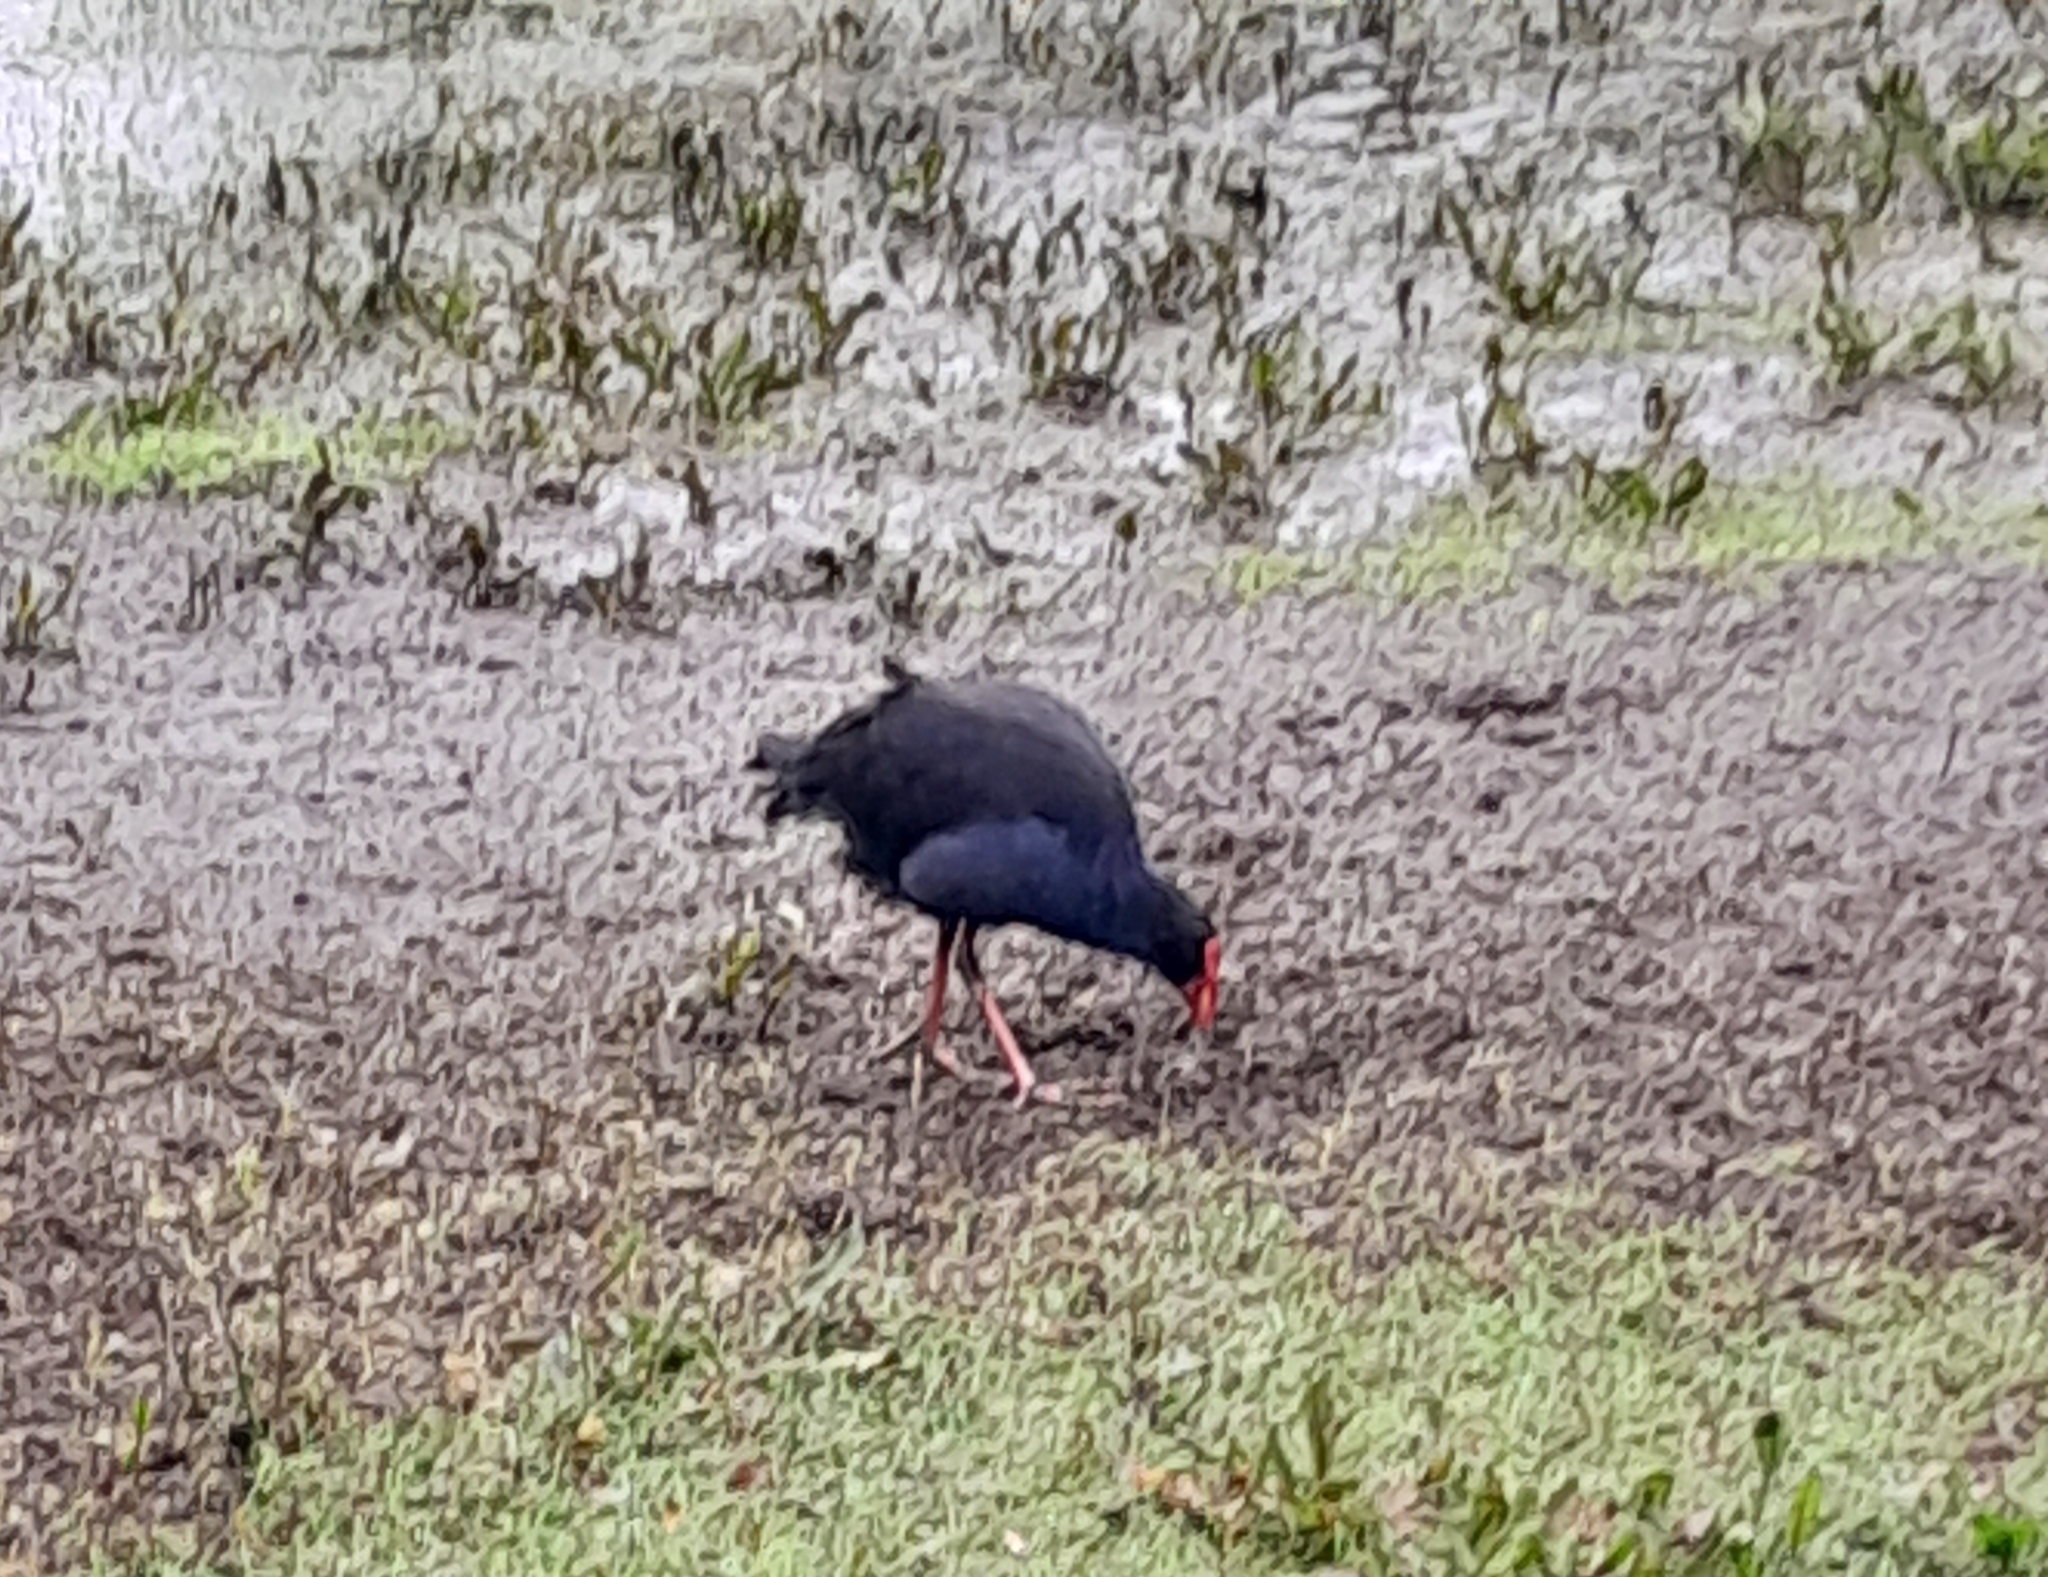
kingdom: Animalia
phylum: Chordata
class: Aves
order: Gruiformes
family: Rallidae
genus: Porphyrio
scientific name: Porphyrio melanotus
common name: Australasian swamphen
